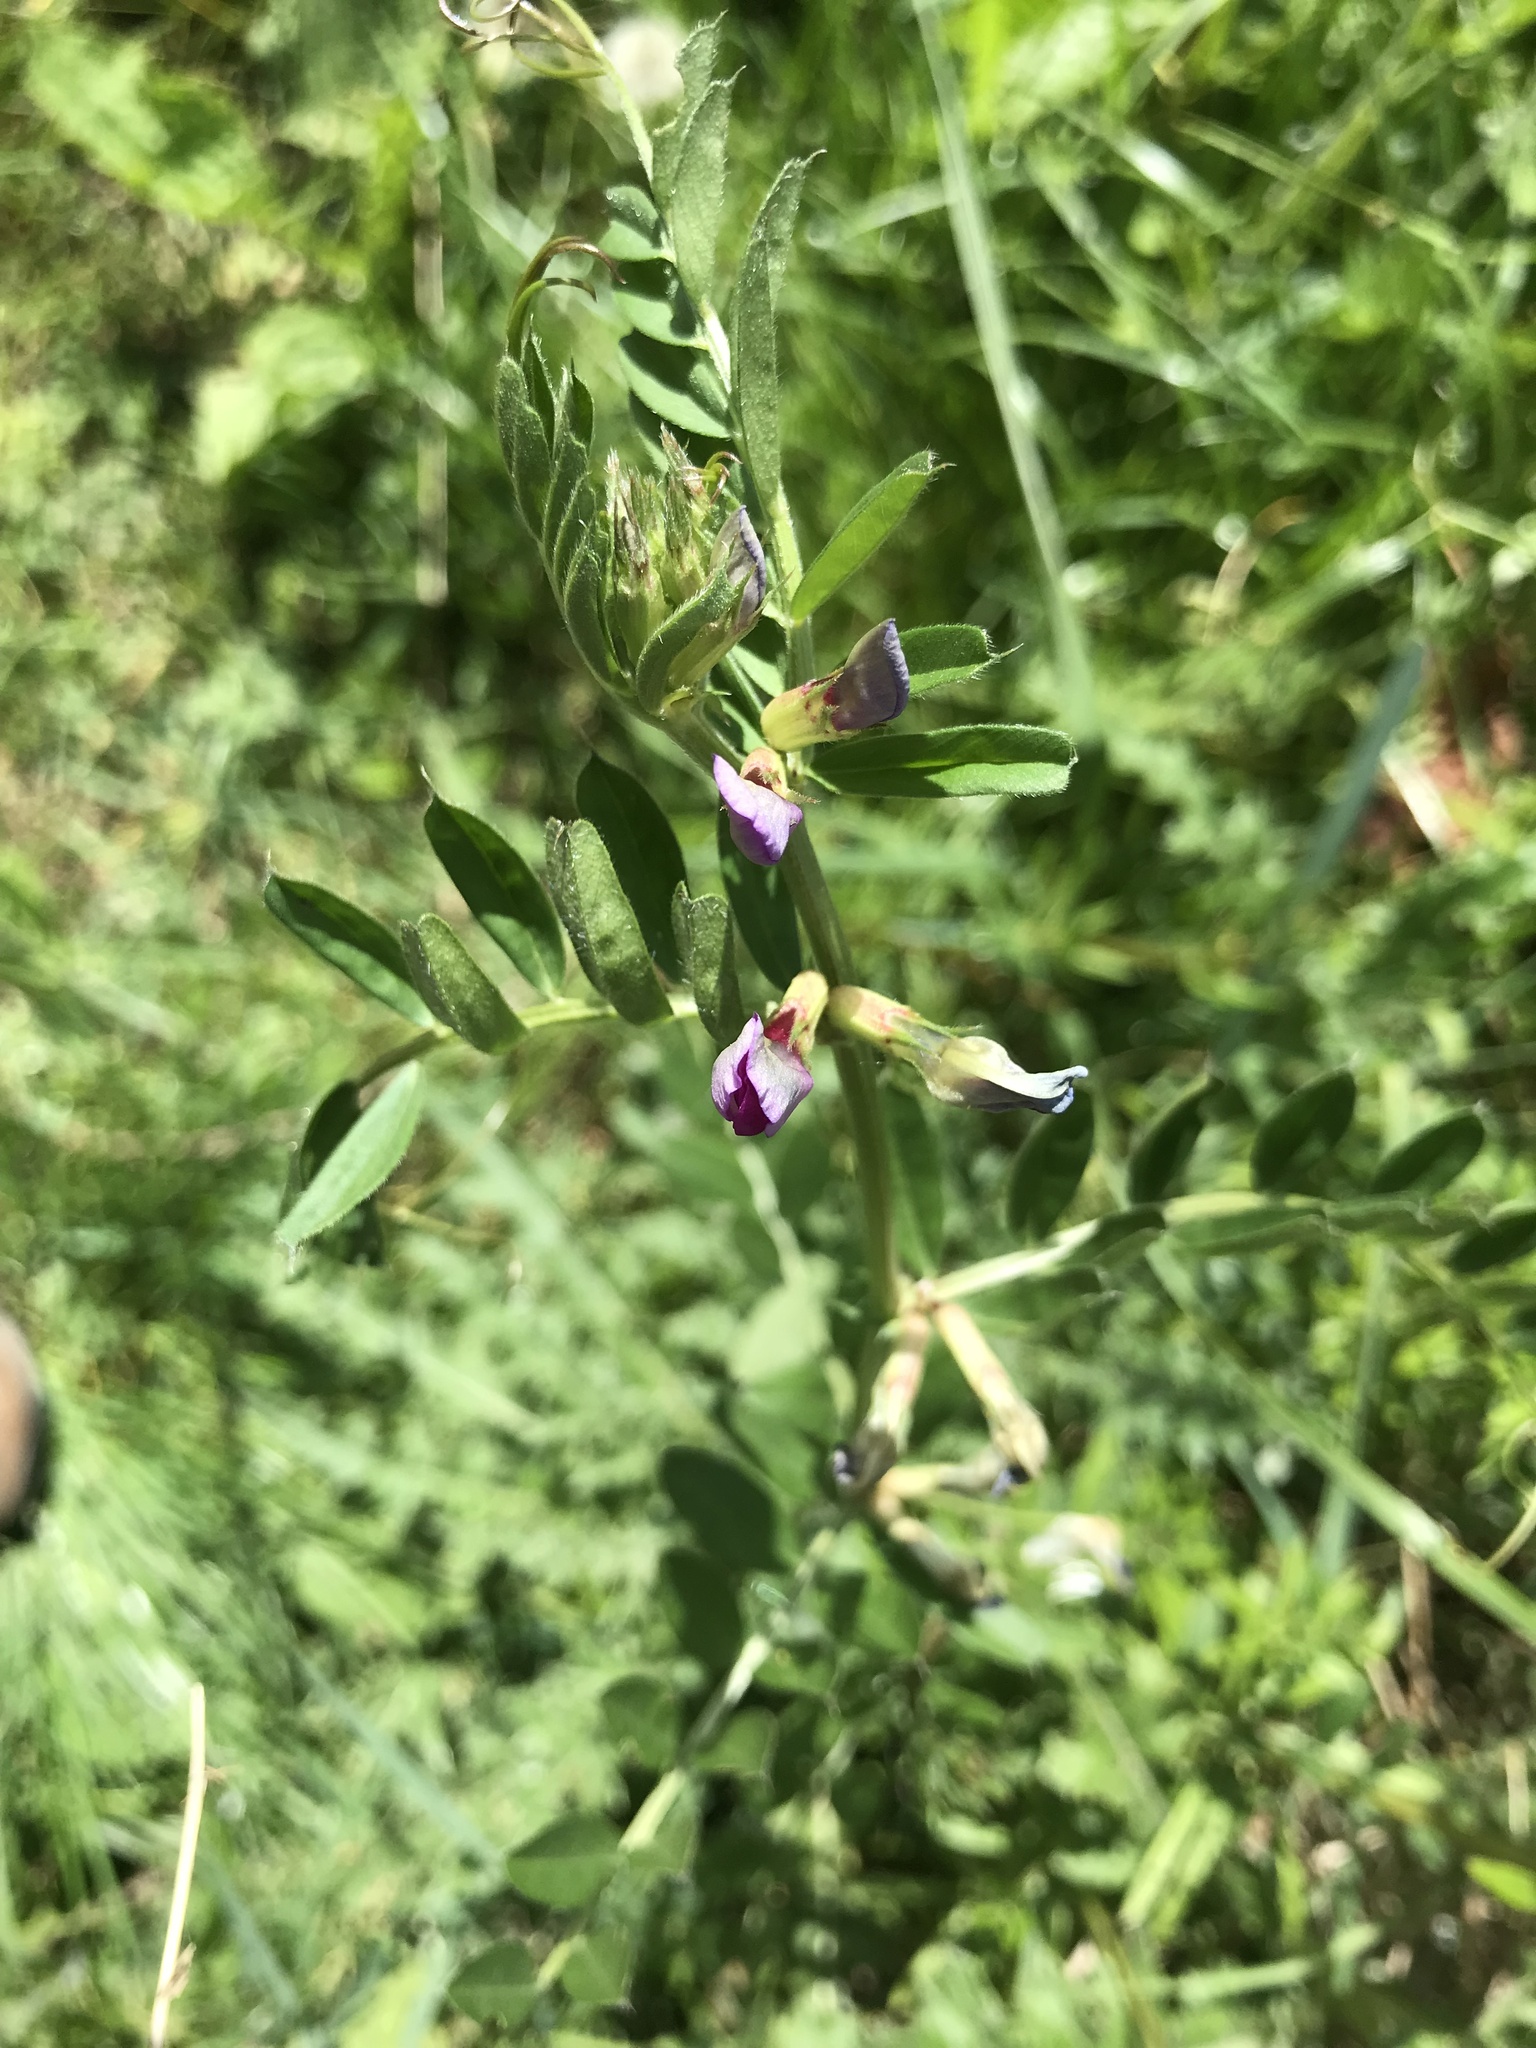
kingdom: Plantae
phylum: Tracheophyta
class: Magnoliopsida
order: Fabales
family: Fabaceae
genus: Vicia
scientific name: Vicia sativa
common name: Garden vetch
